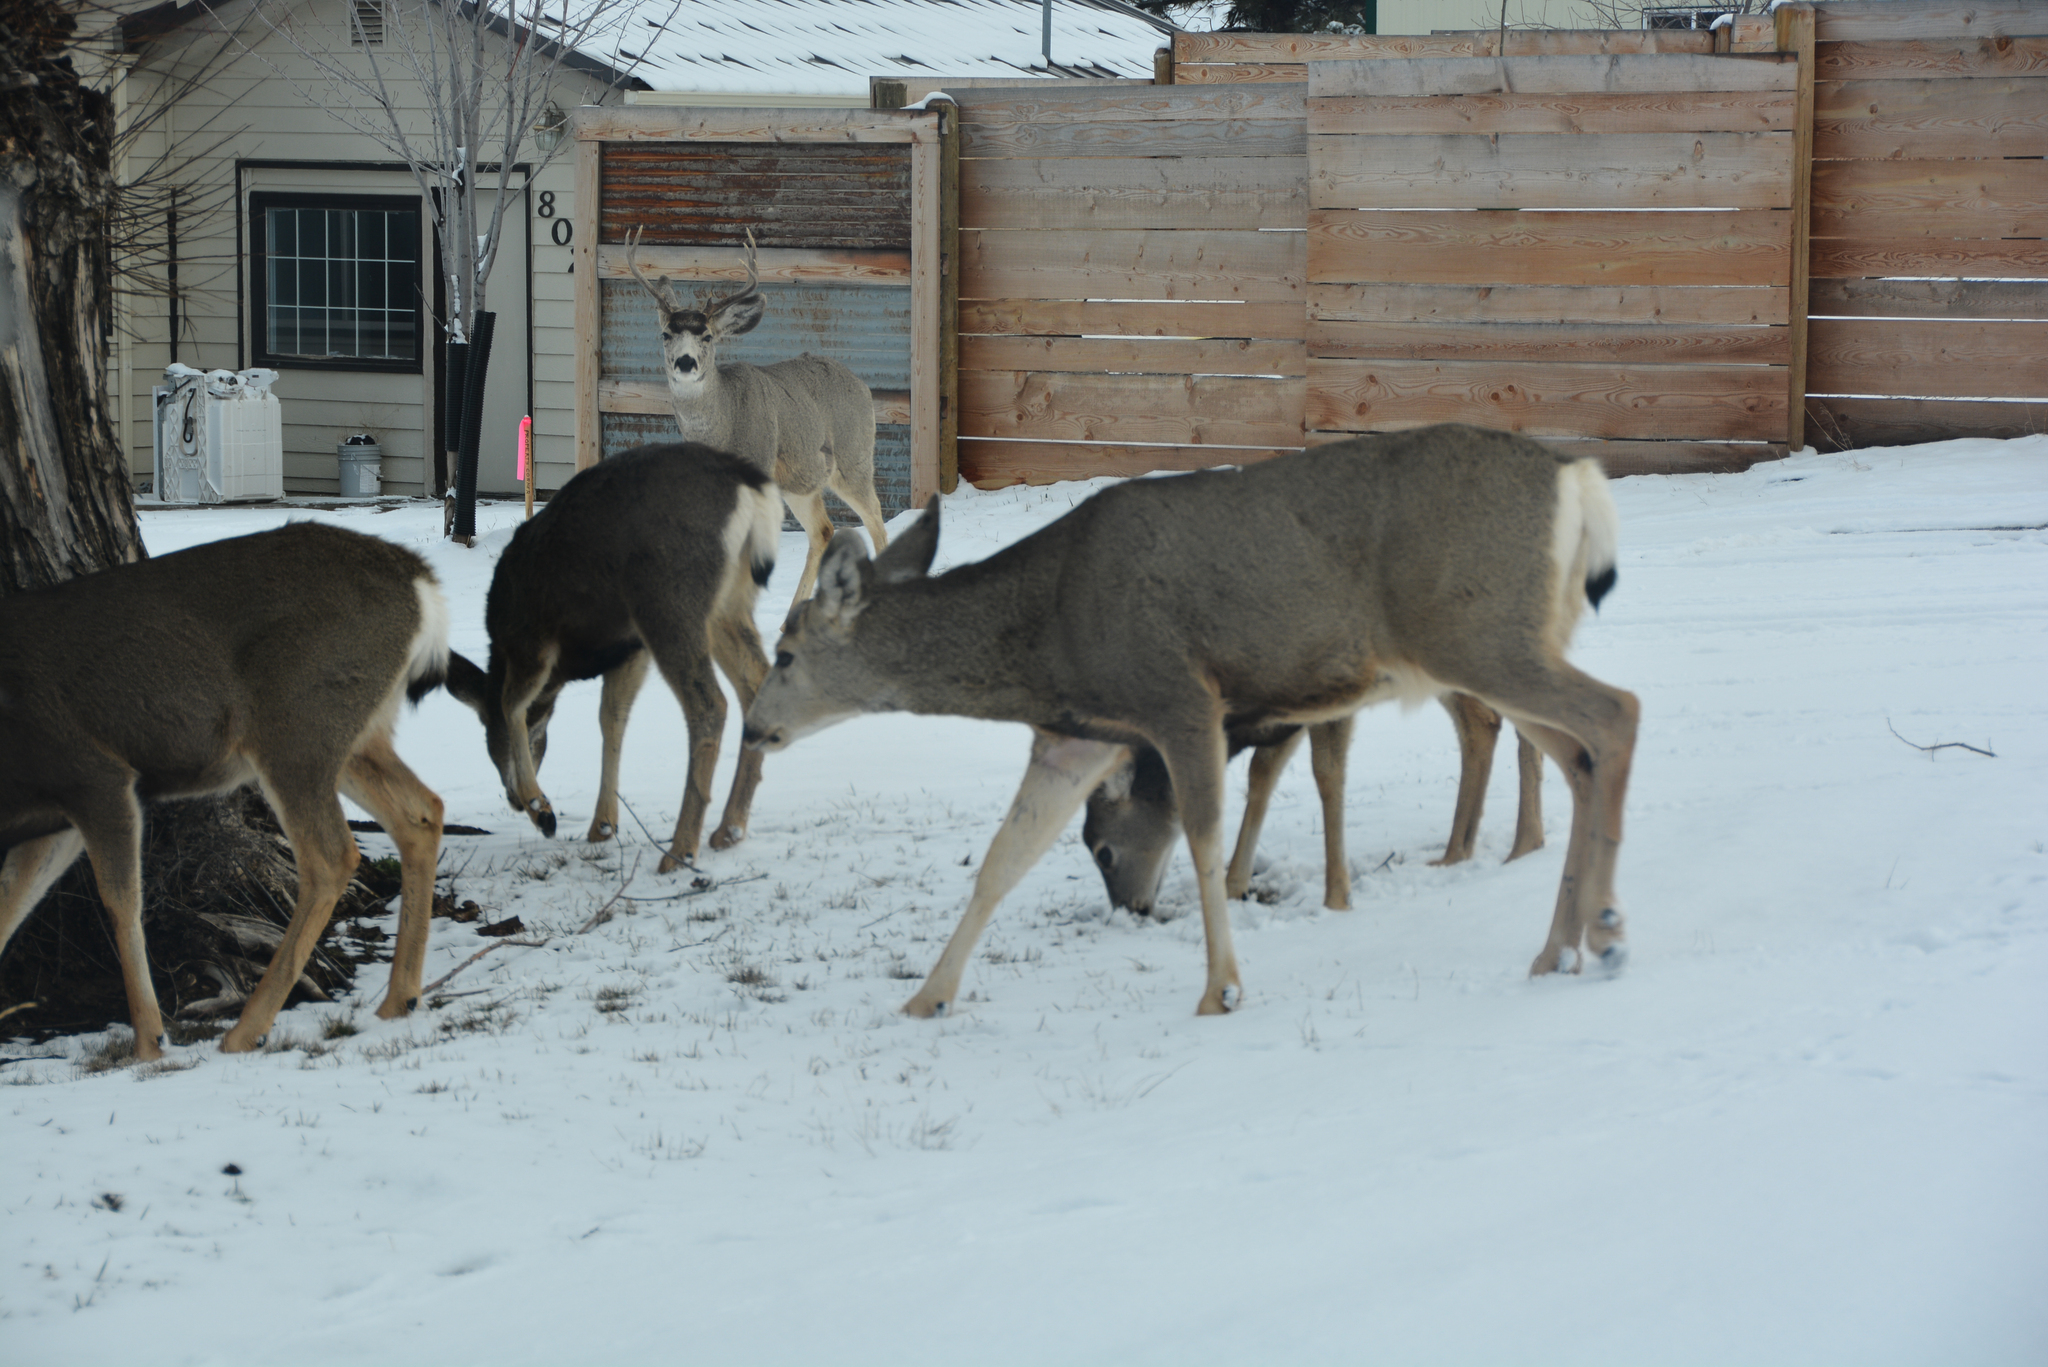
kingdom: Animalia
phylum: Chordata
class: Mammalia
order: Artiodactyla
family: Cervidae
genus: Odocoileus
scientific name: Odocoileus hemionus
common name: Mule deer
